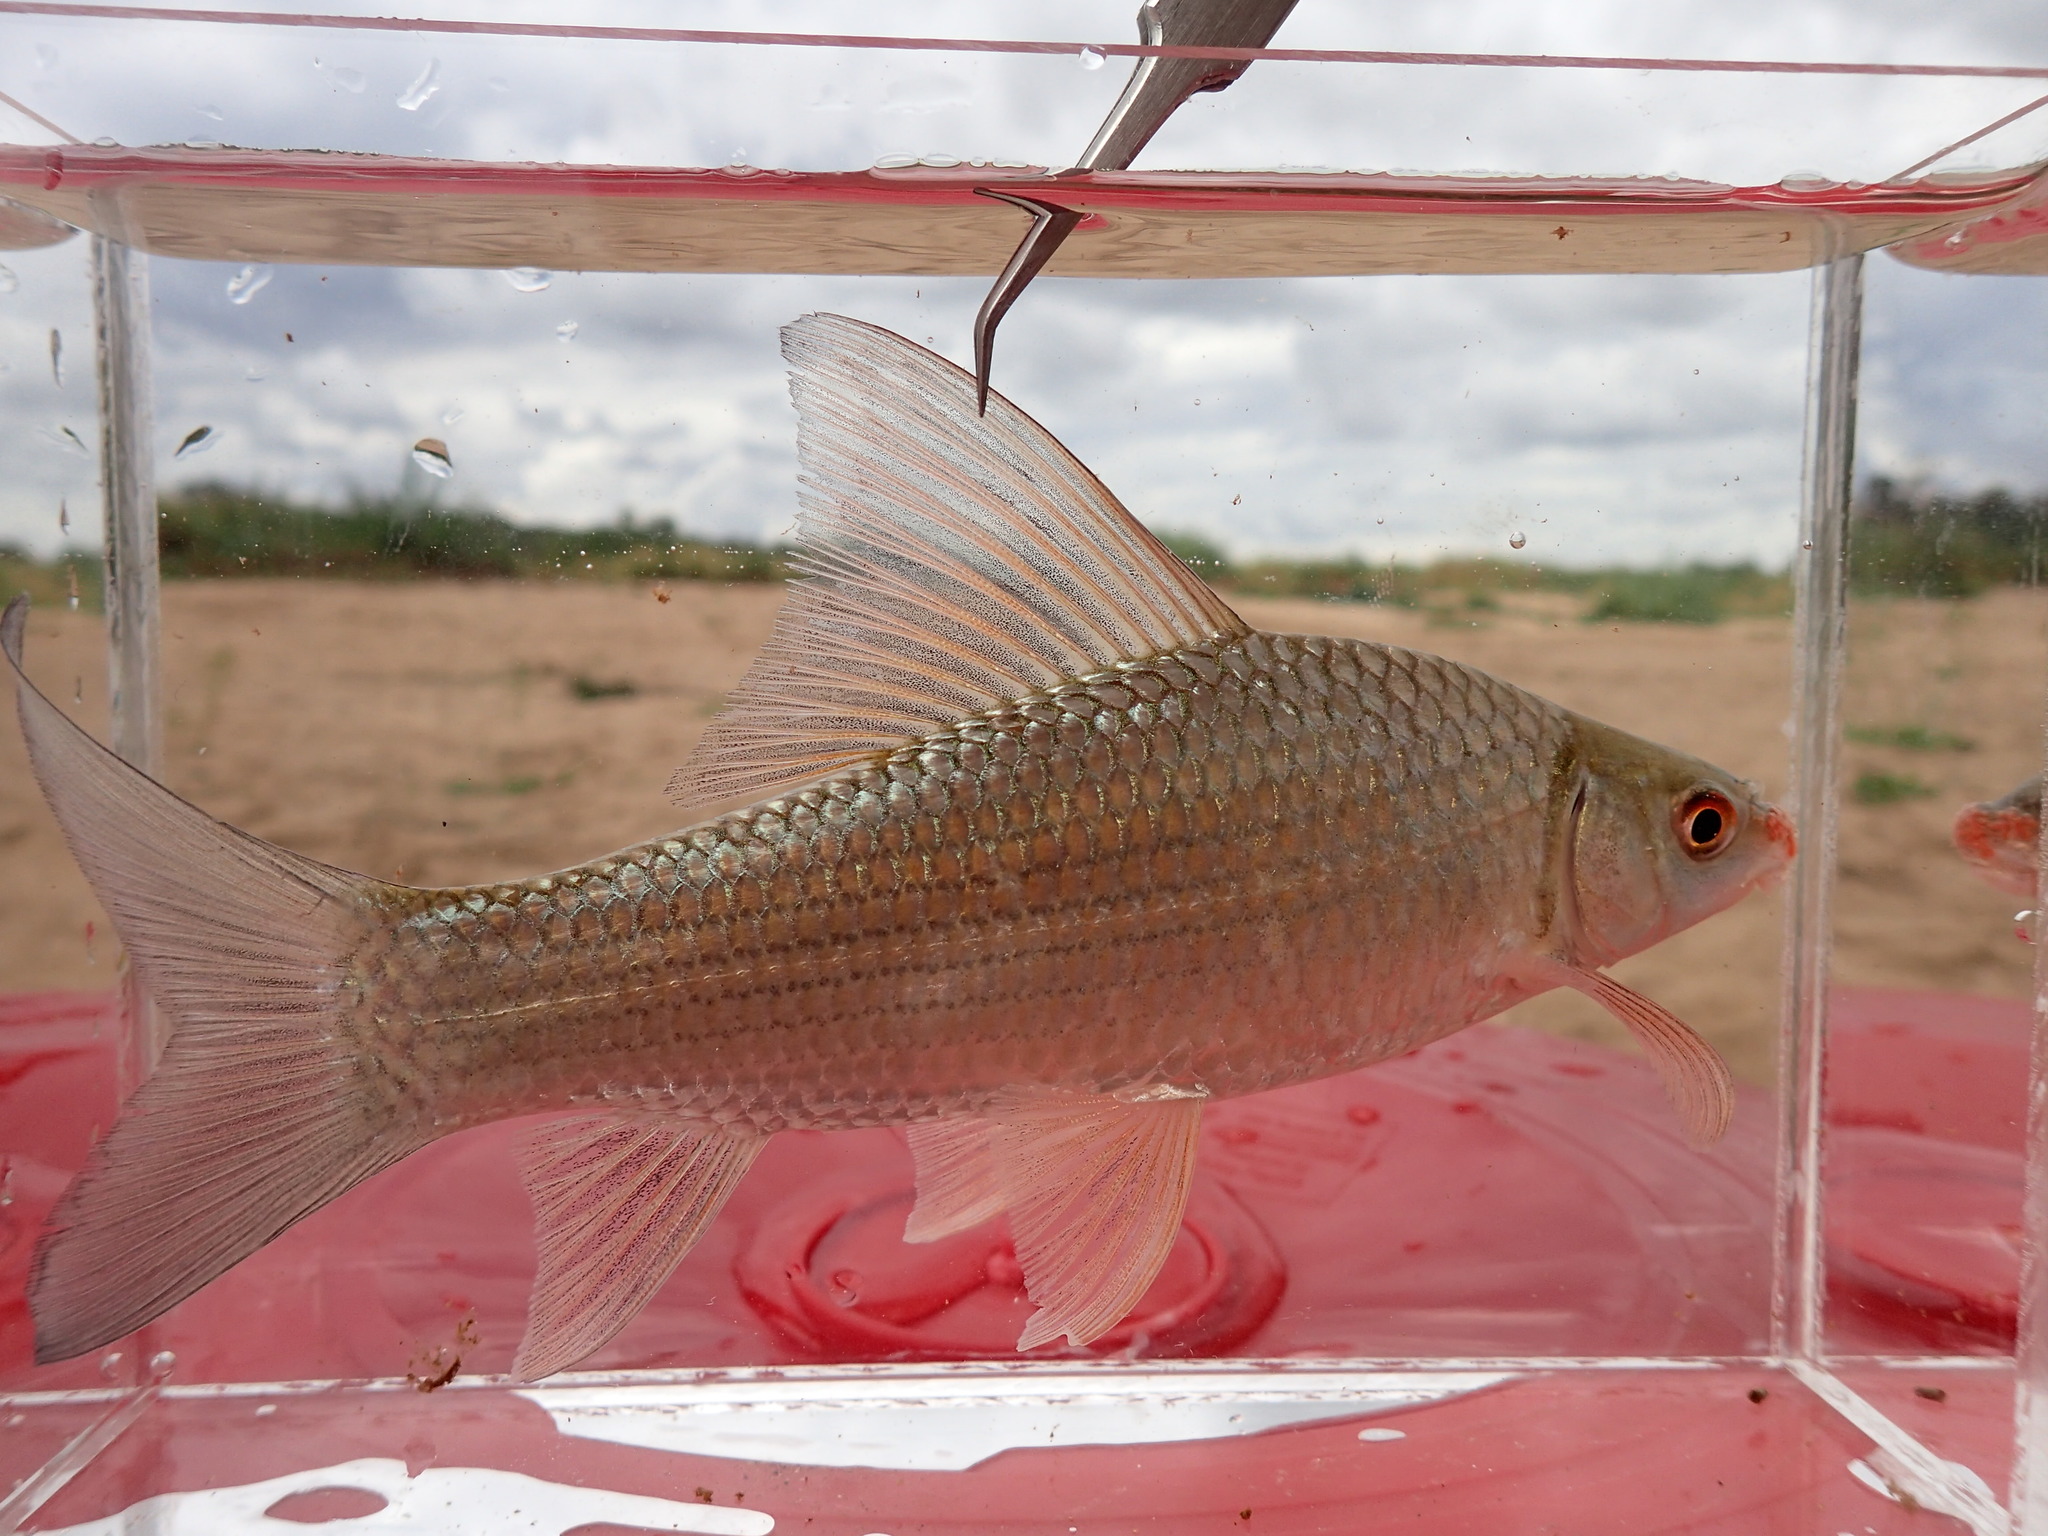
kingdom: Animalia
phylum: Chordata
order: Cypriniformes
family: Cyprinidae
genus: Labeo
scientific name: Labeo altivelis
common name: Hunyani labeo
